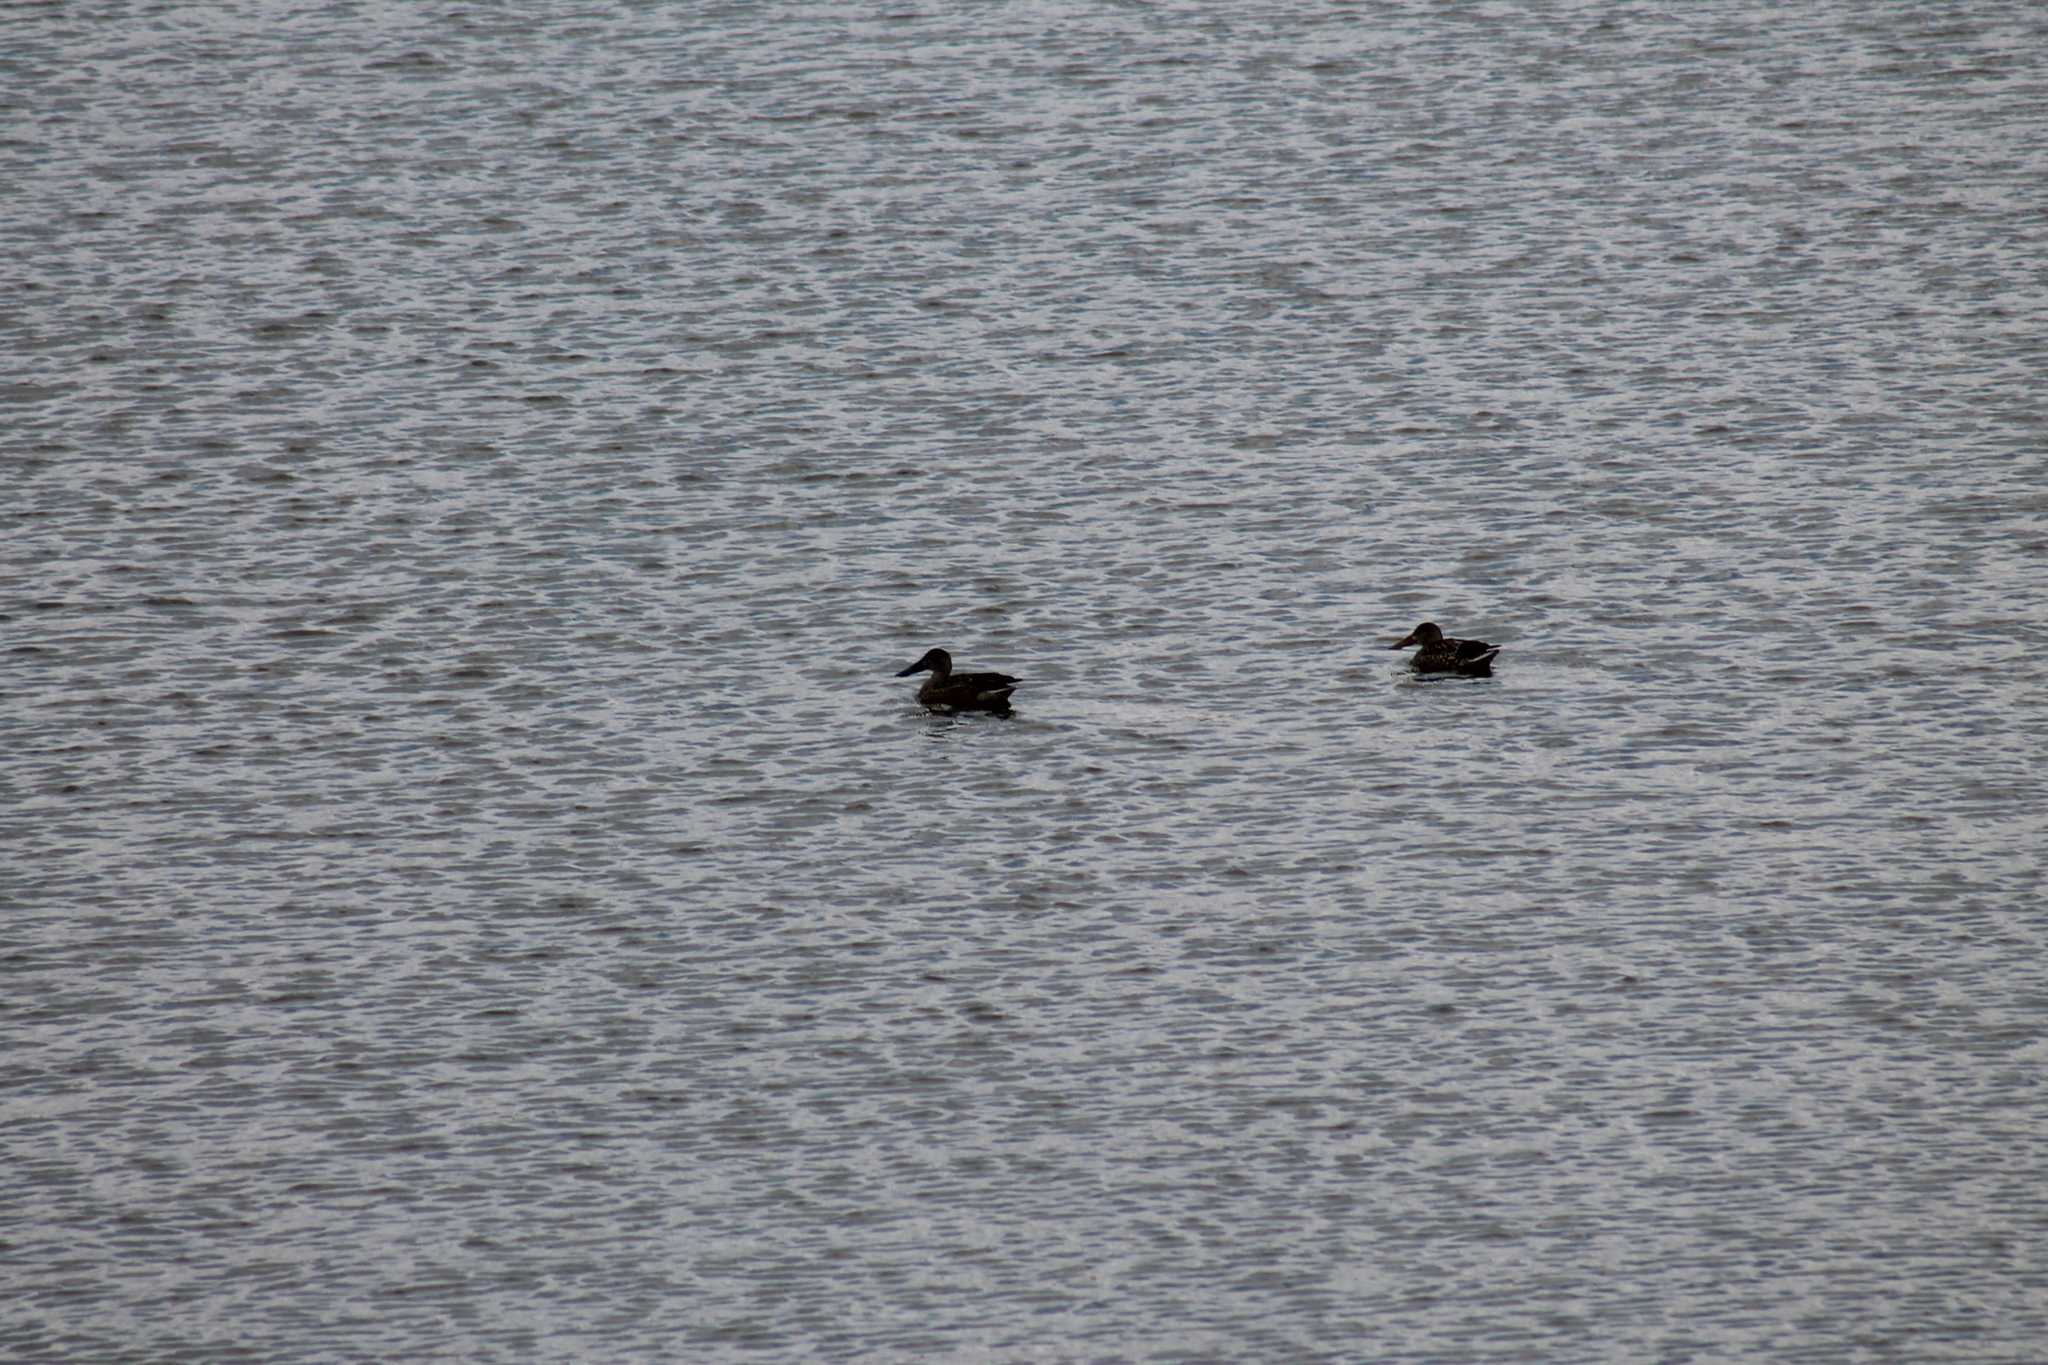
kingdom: Animalia
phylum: Chordata
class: Aves
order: Anseriformes
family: Anatidae
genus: Spatula
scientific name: Spatula clypeata
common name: Northern shoveler
